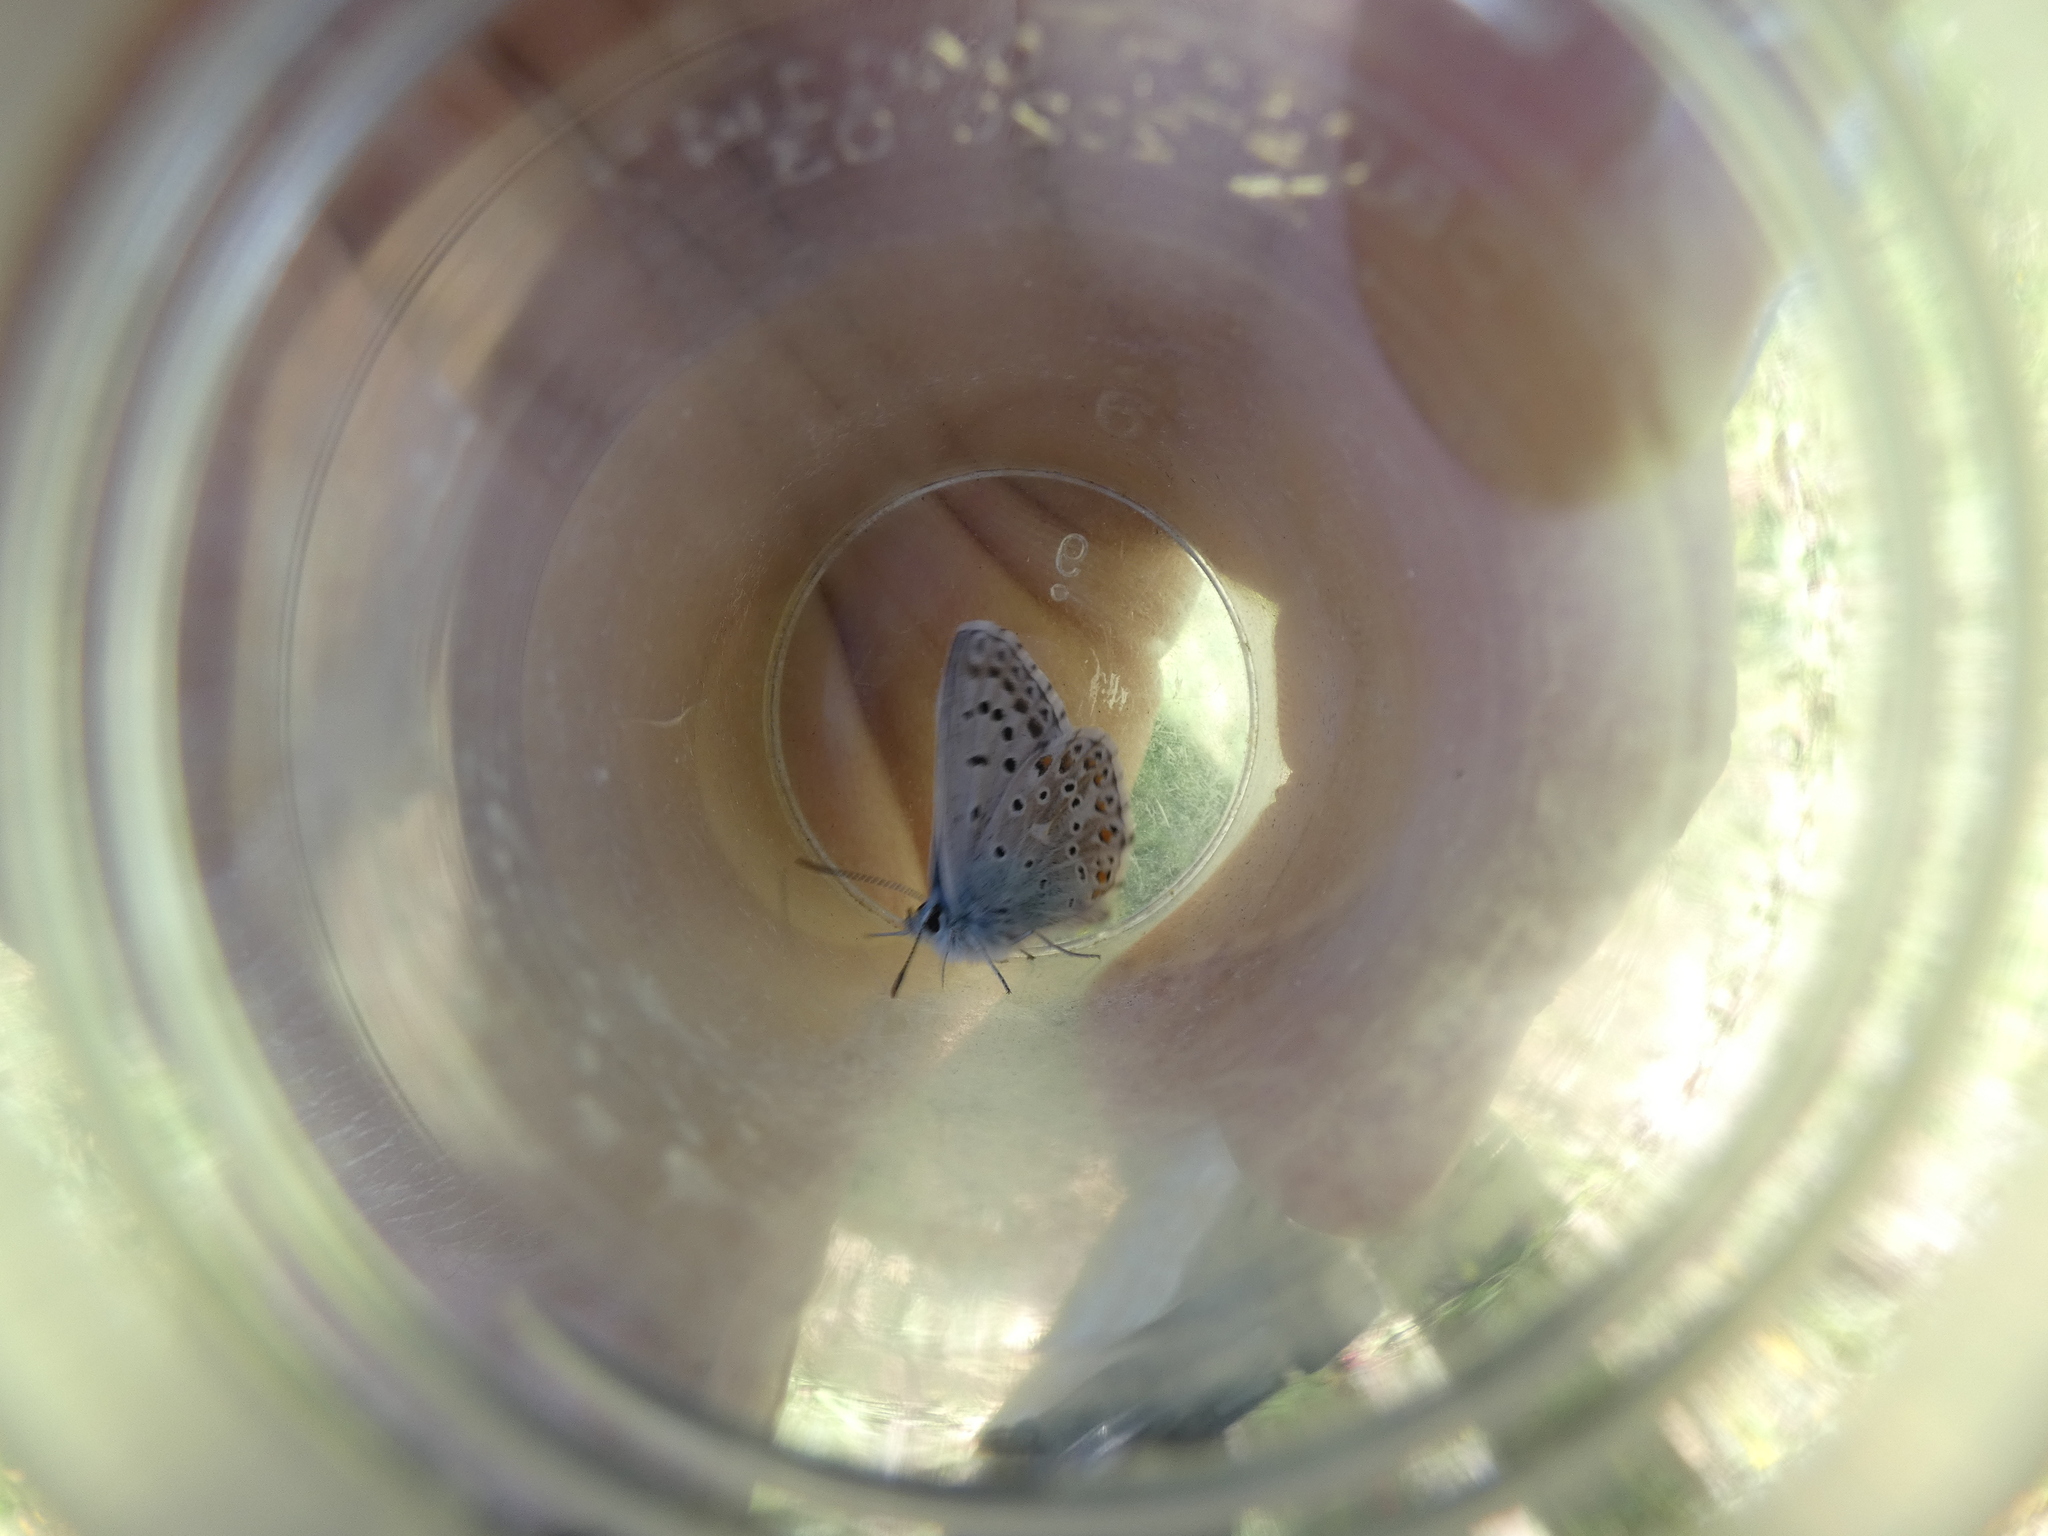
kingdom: Animalia
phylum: Arthropoda
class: Insecta
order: Lepidoptera
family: Lycaenidae
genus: Lysandra
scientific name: Lysandra hispana
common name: Provence chalkhill blue
